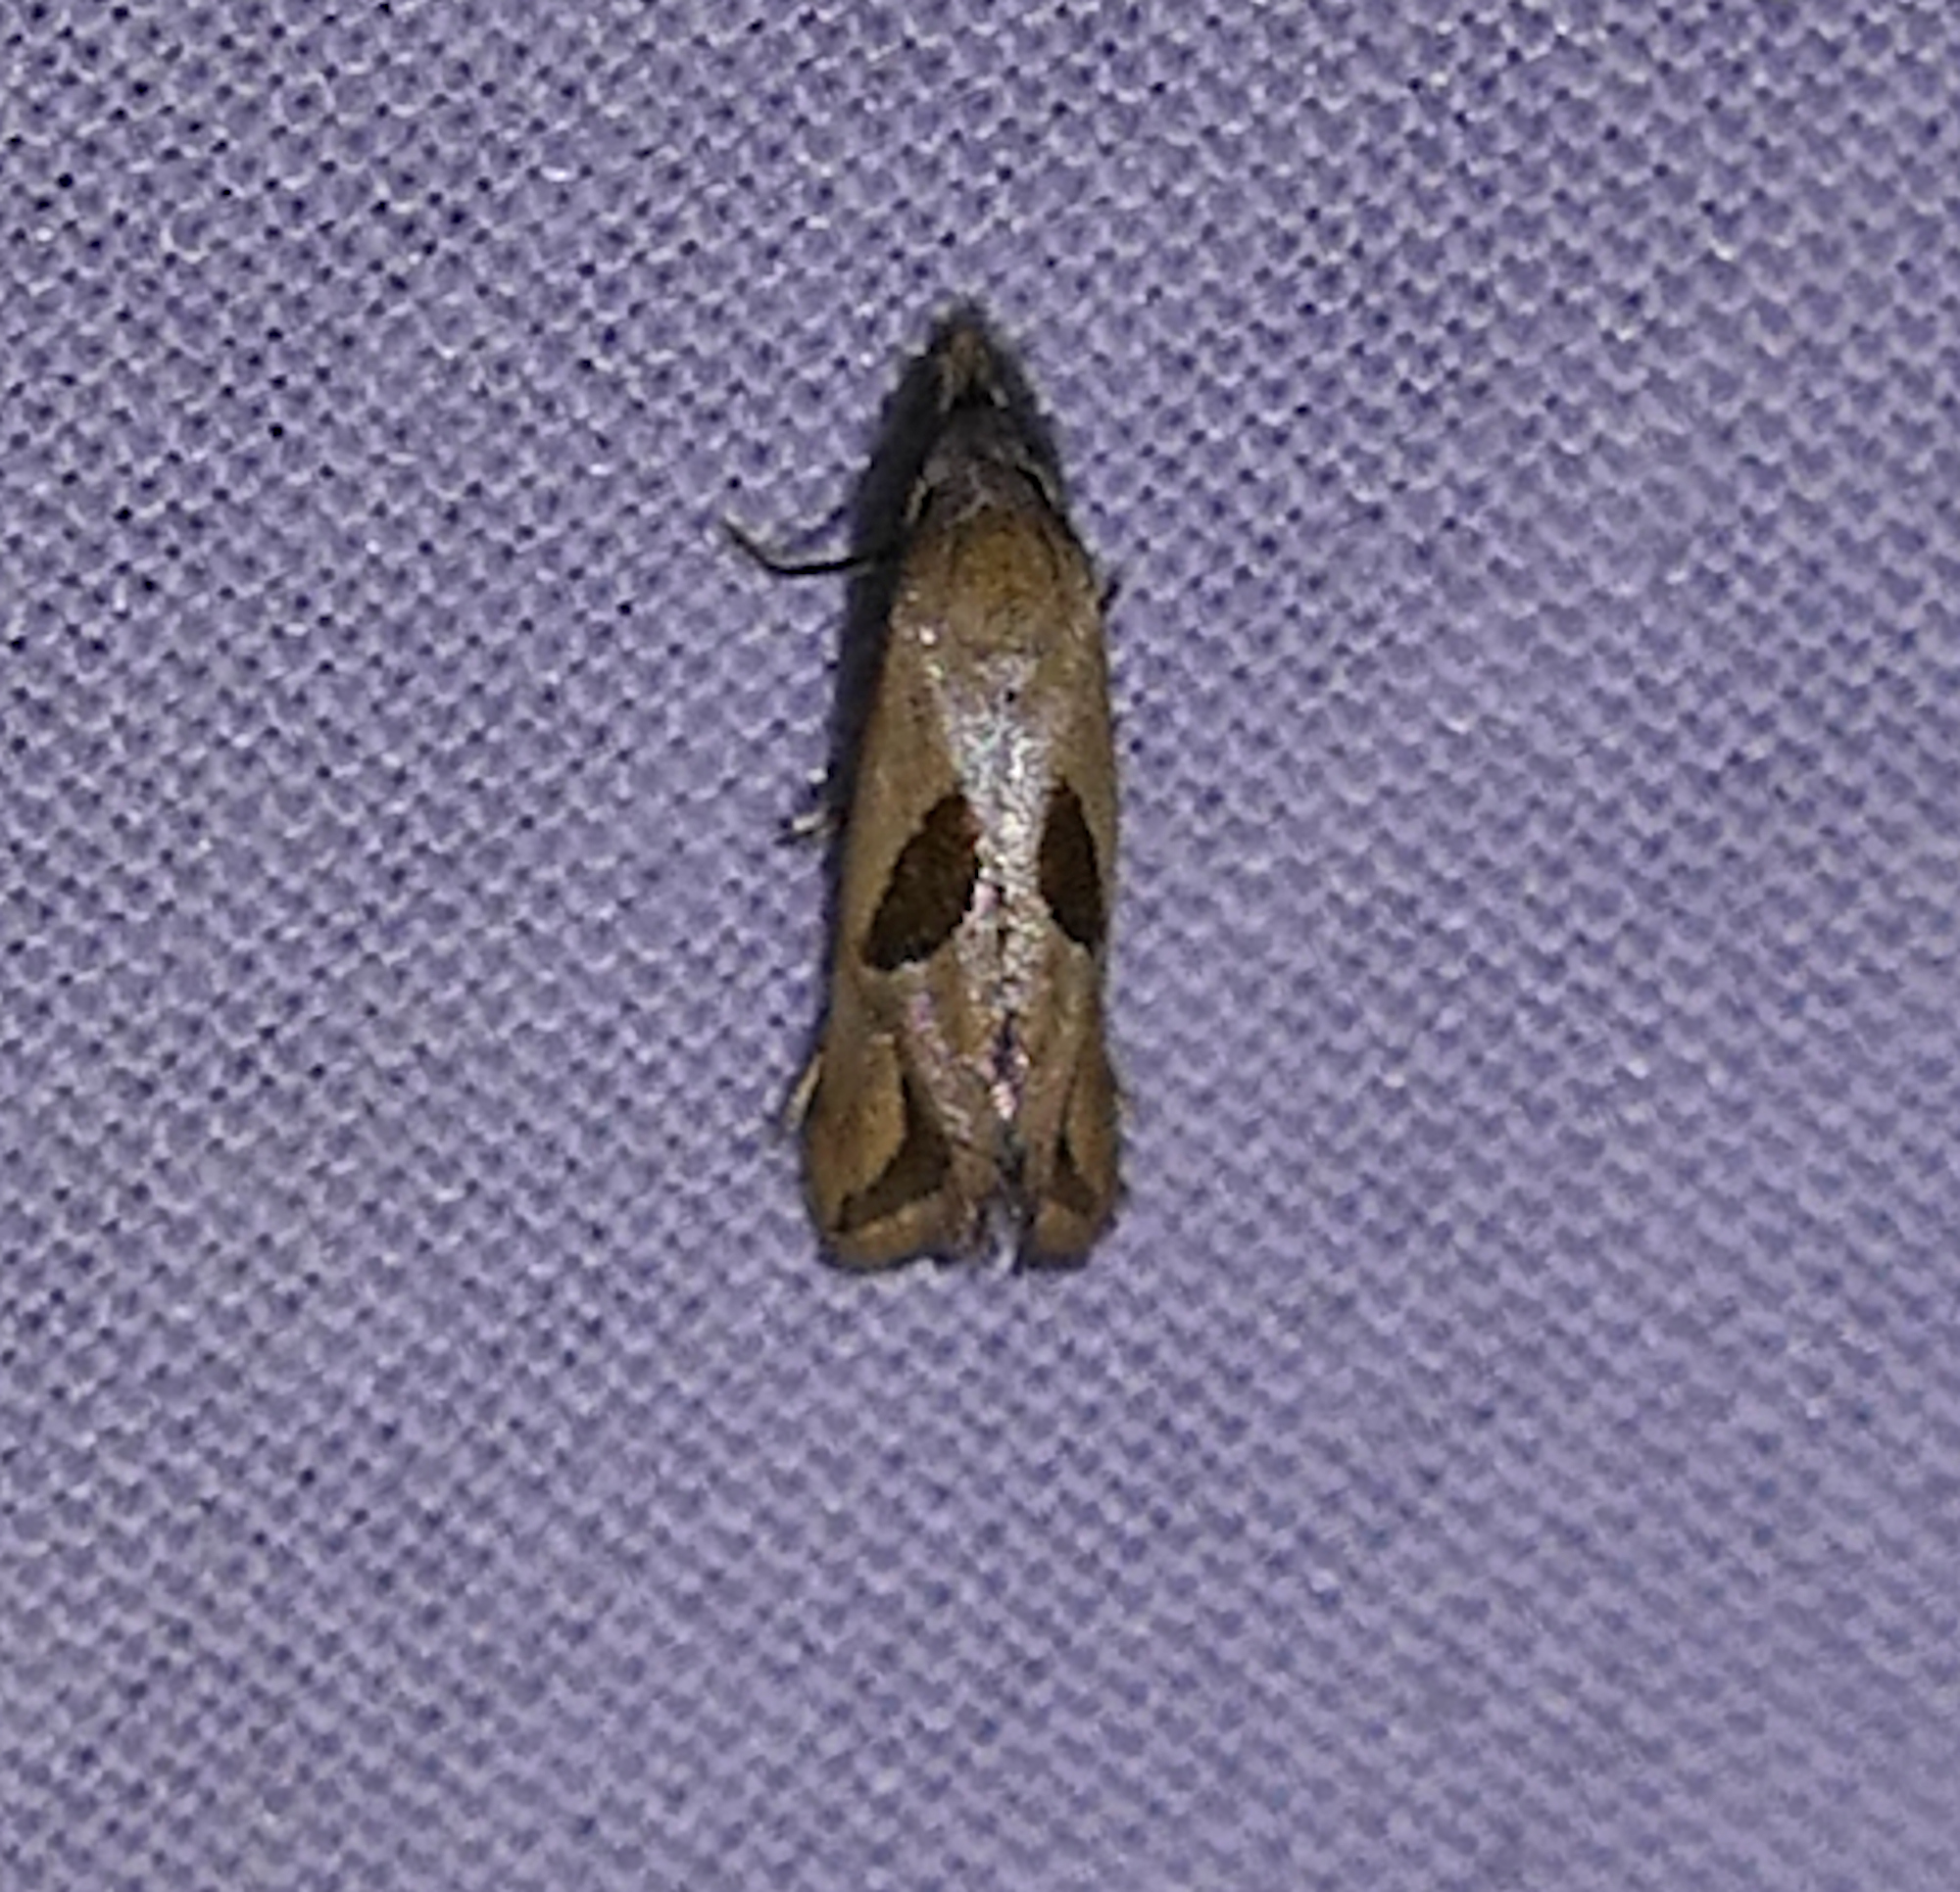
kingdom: Animalia
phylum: Arthropoda
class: Insecta
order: Lepidoptera
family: Tortricidae
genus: Eugnosta
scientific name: Eugnosta bimaculana
